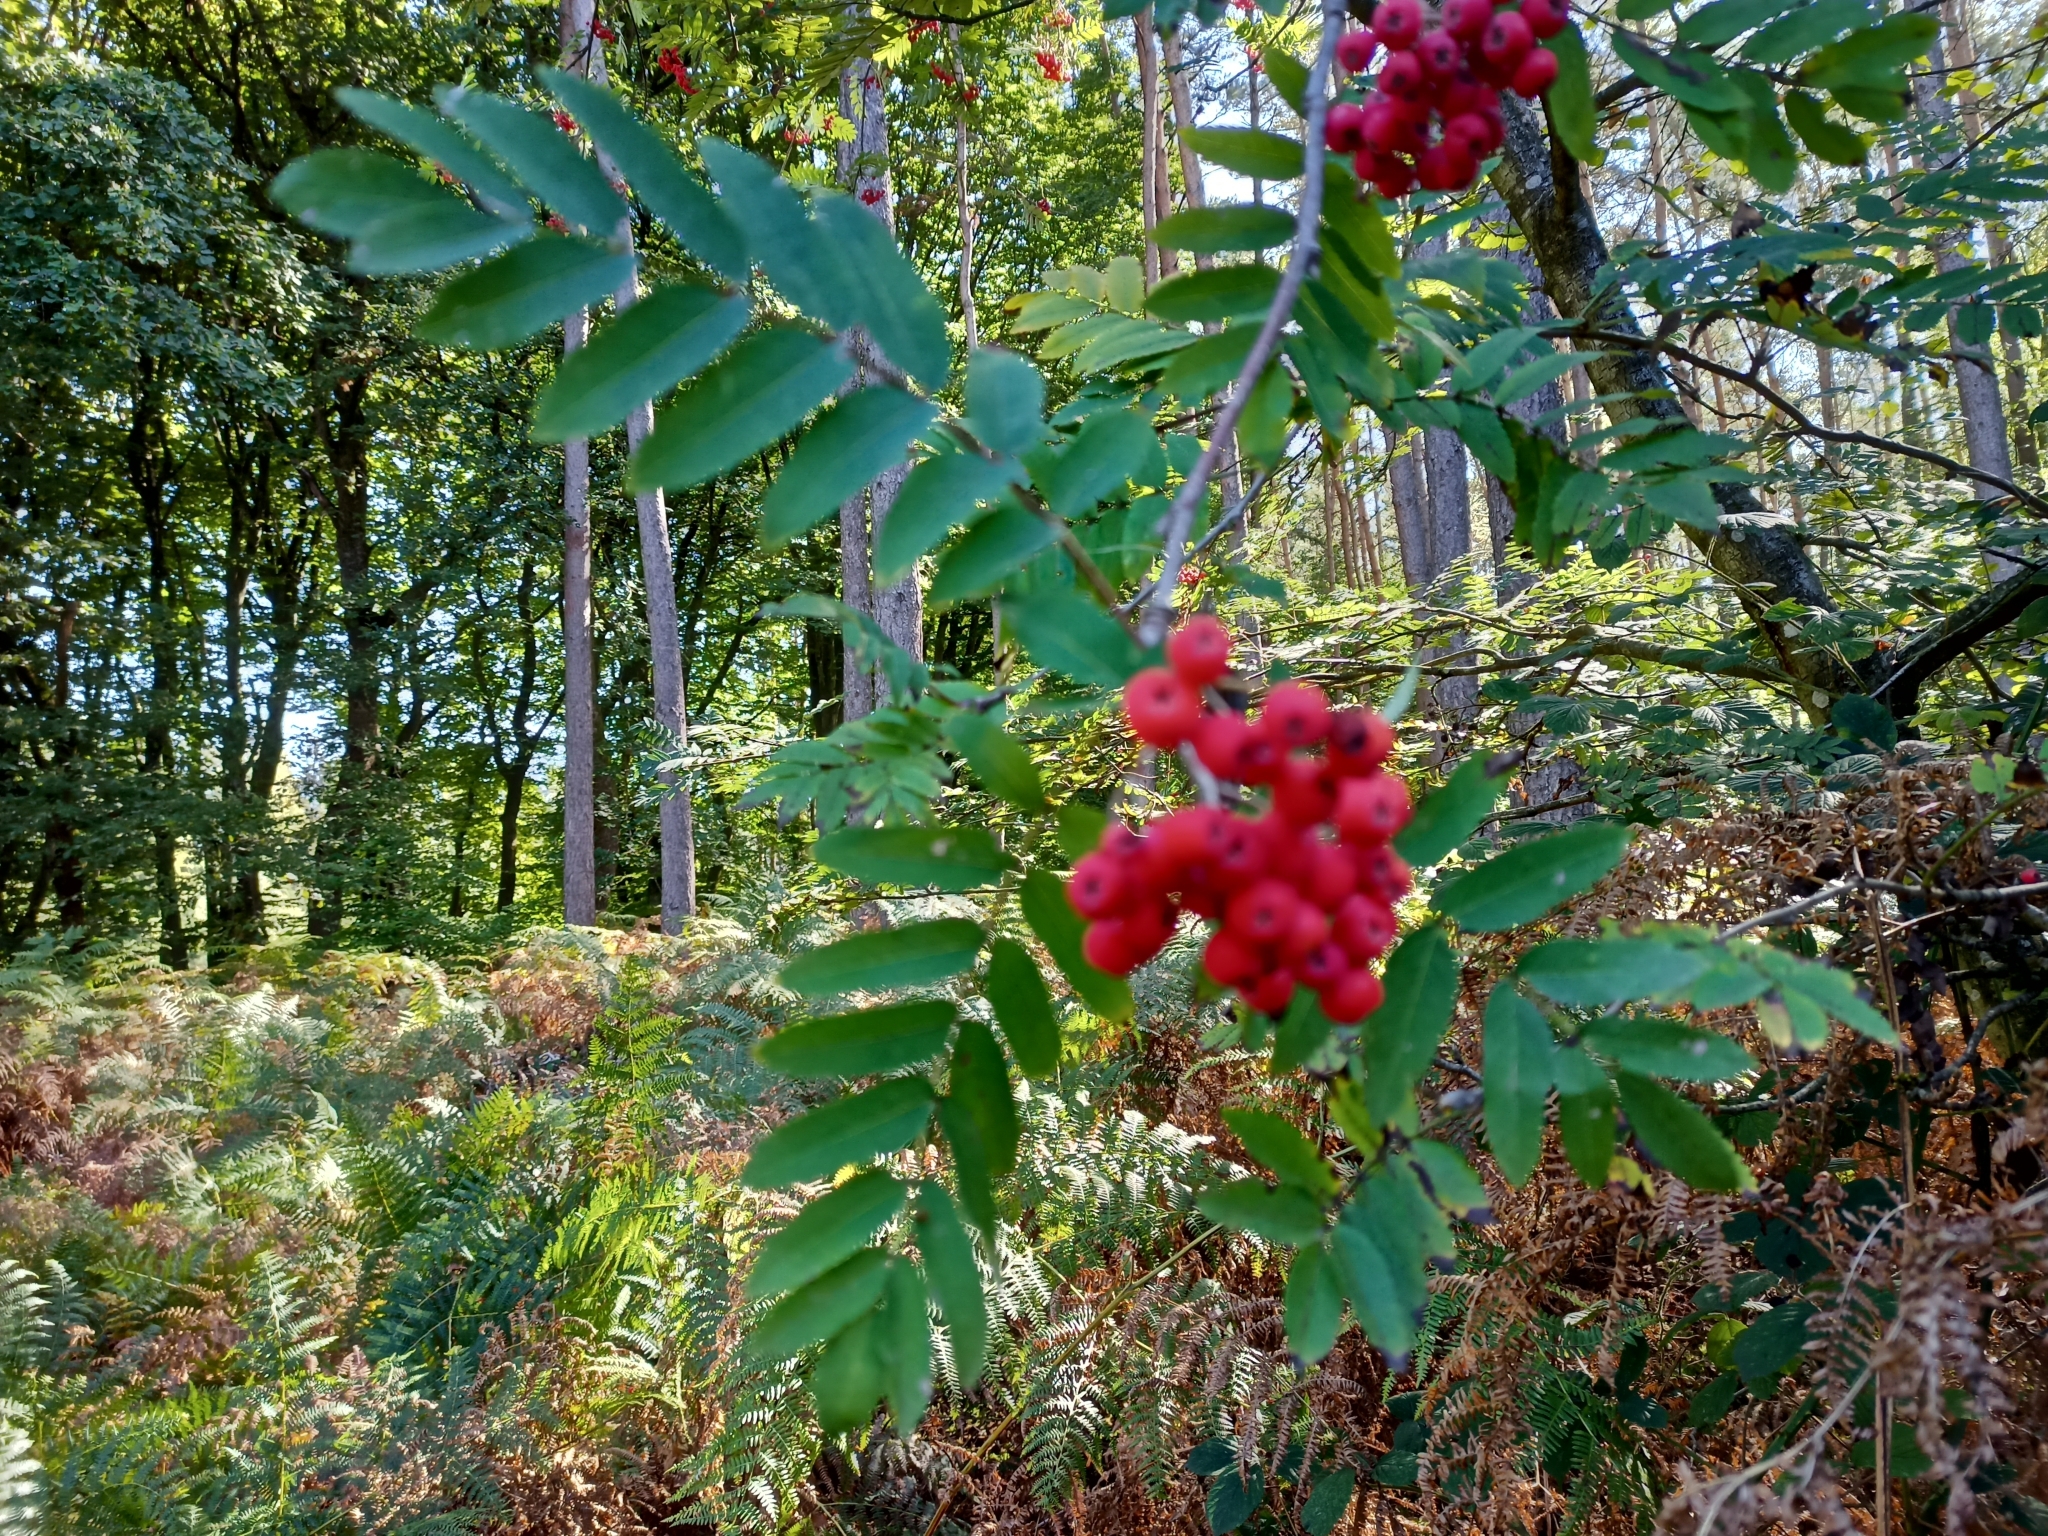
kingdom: Plantae
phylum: Tracheophyta
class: Magnoliopsida
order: Rosales
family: Rosaceae
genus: Sorbus
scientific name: Sorbus aucuparia
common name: Rowan
